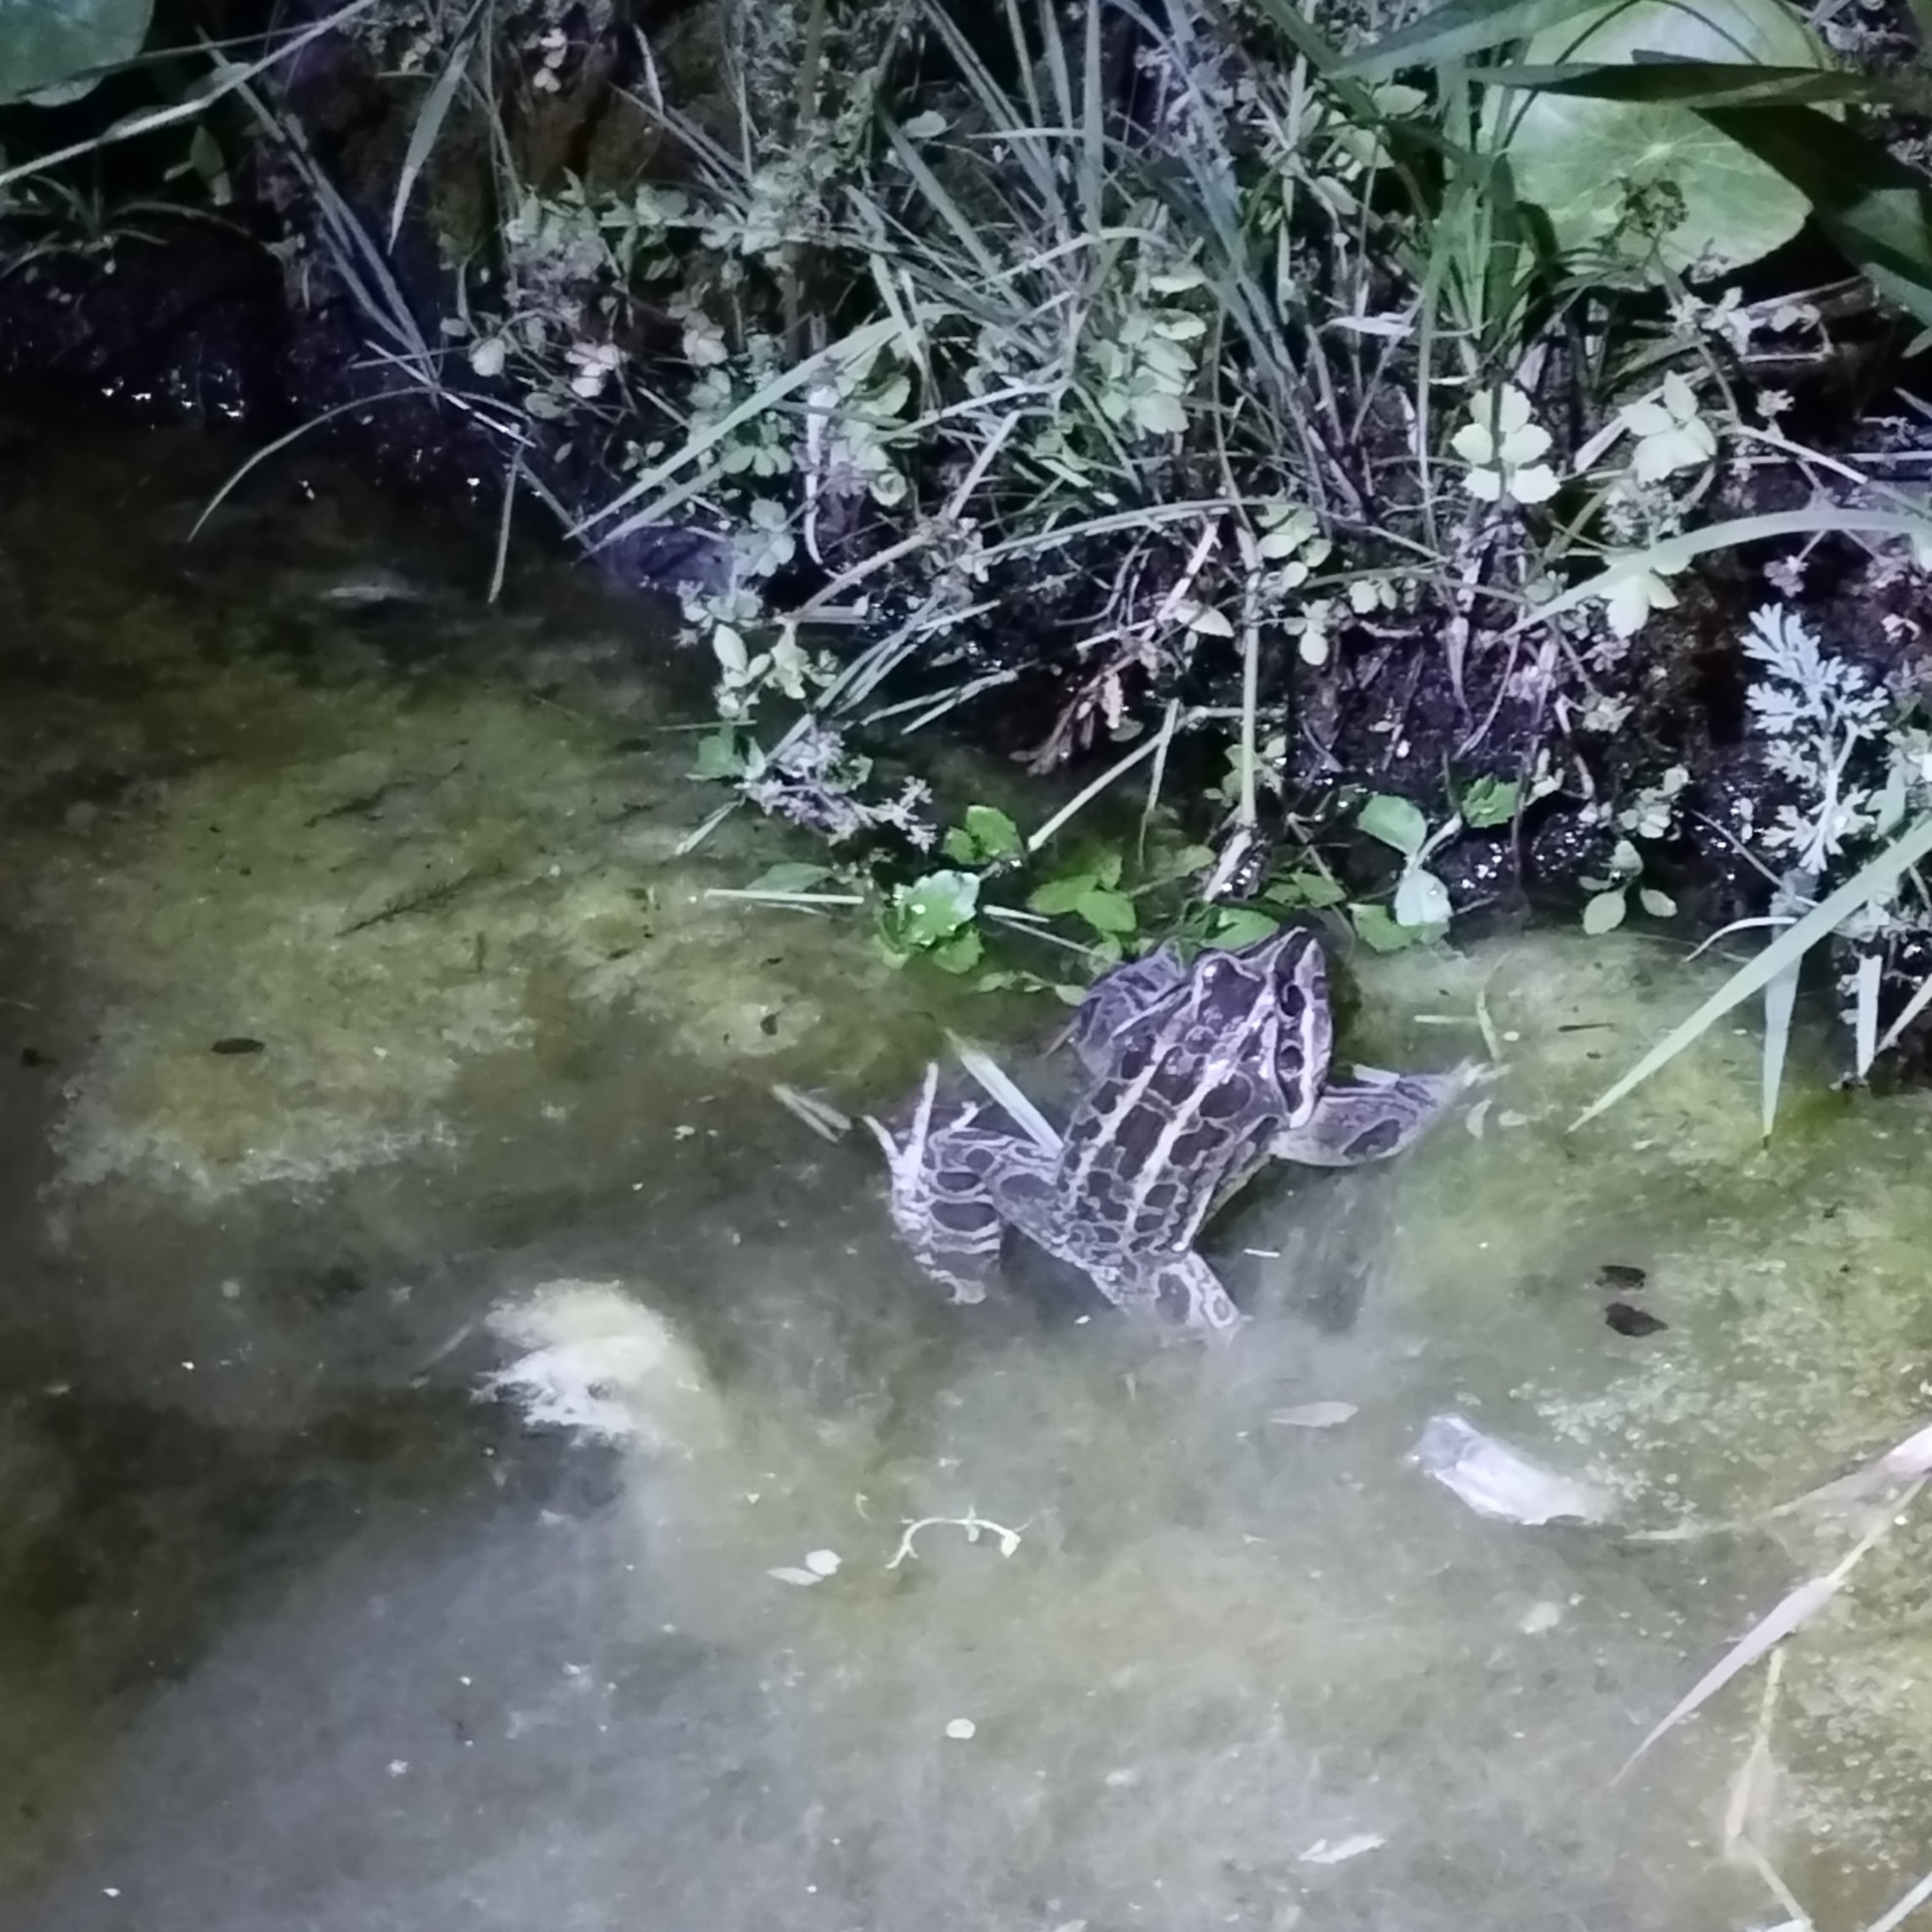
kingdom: Animalia
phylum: Chordata
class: Amphibia
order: Anura
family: Leptodactylidae
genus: Leptodactylus
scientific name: Leptodactylus luctator
